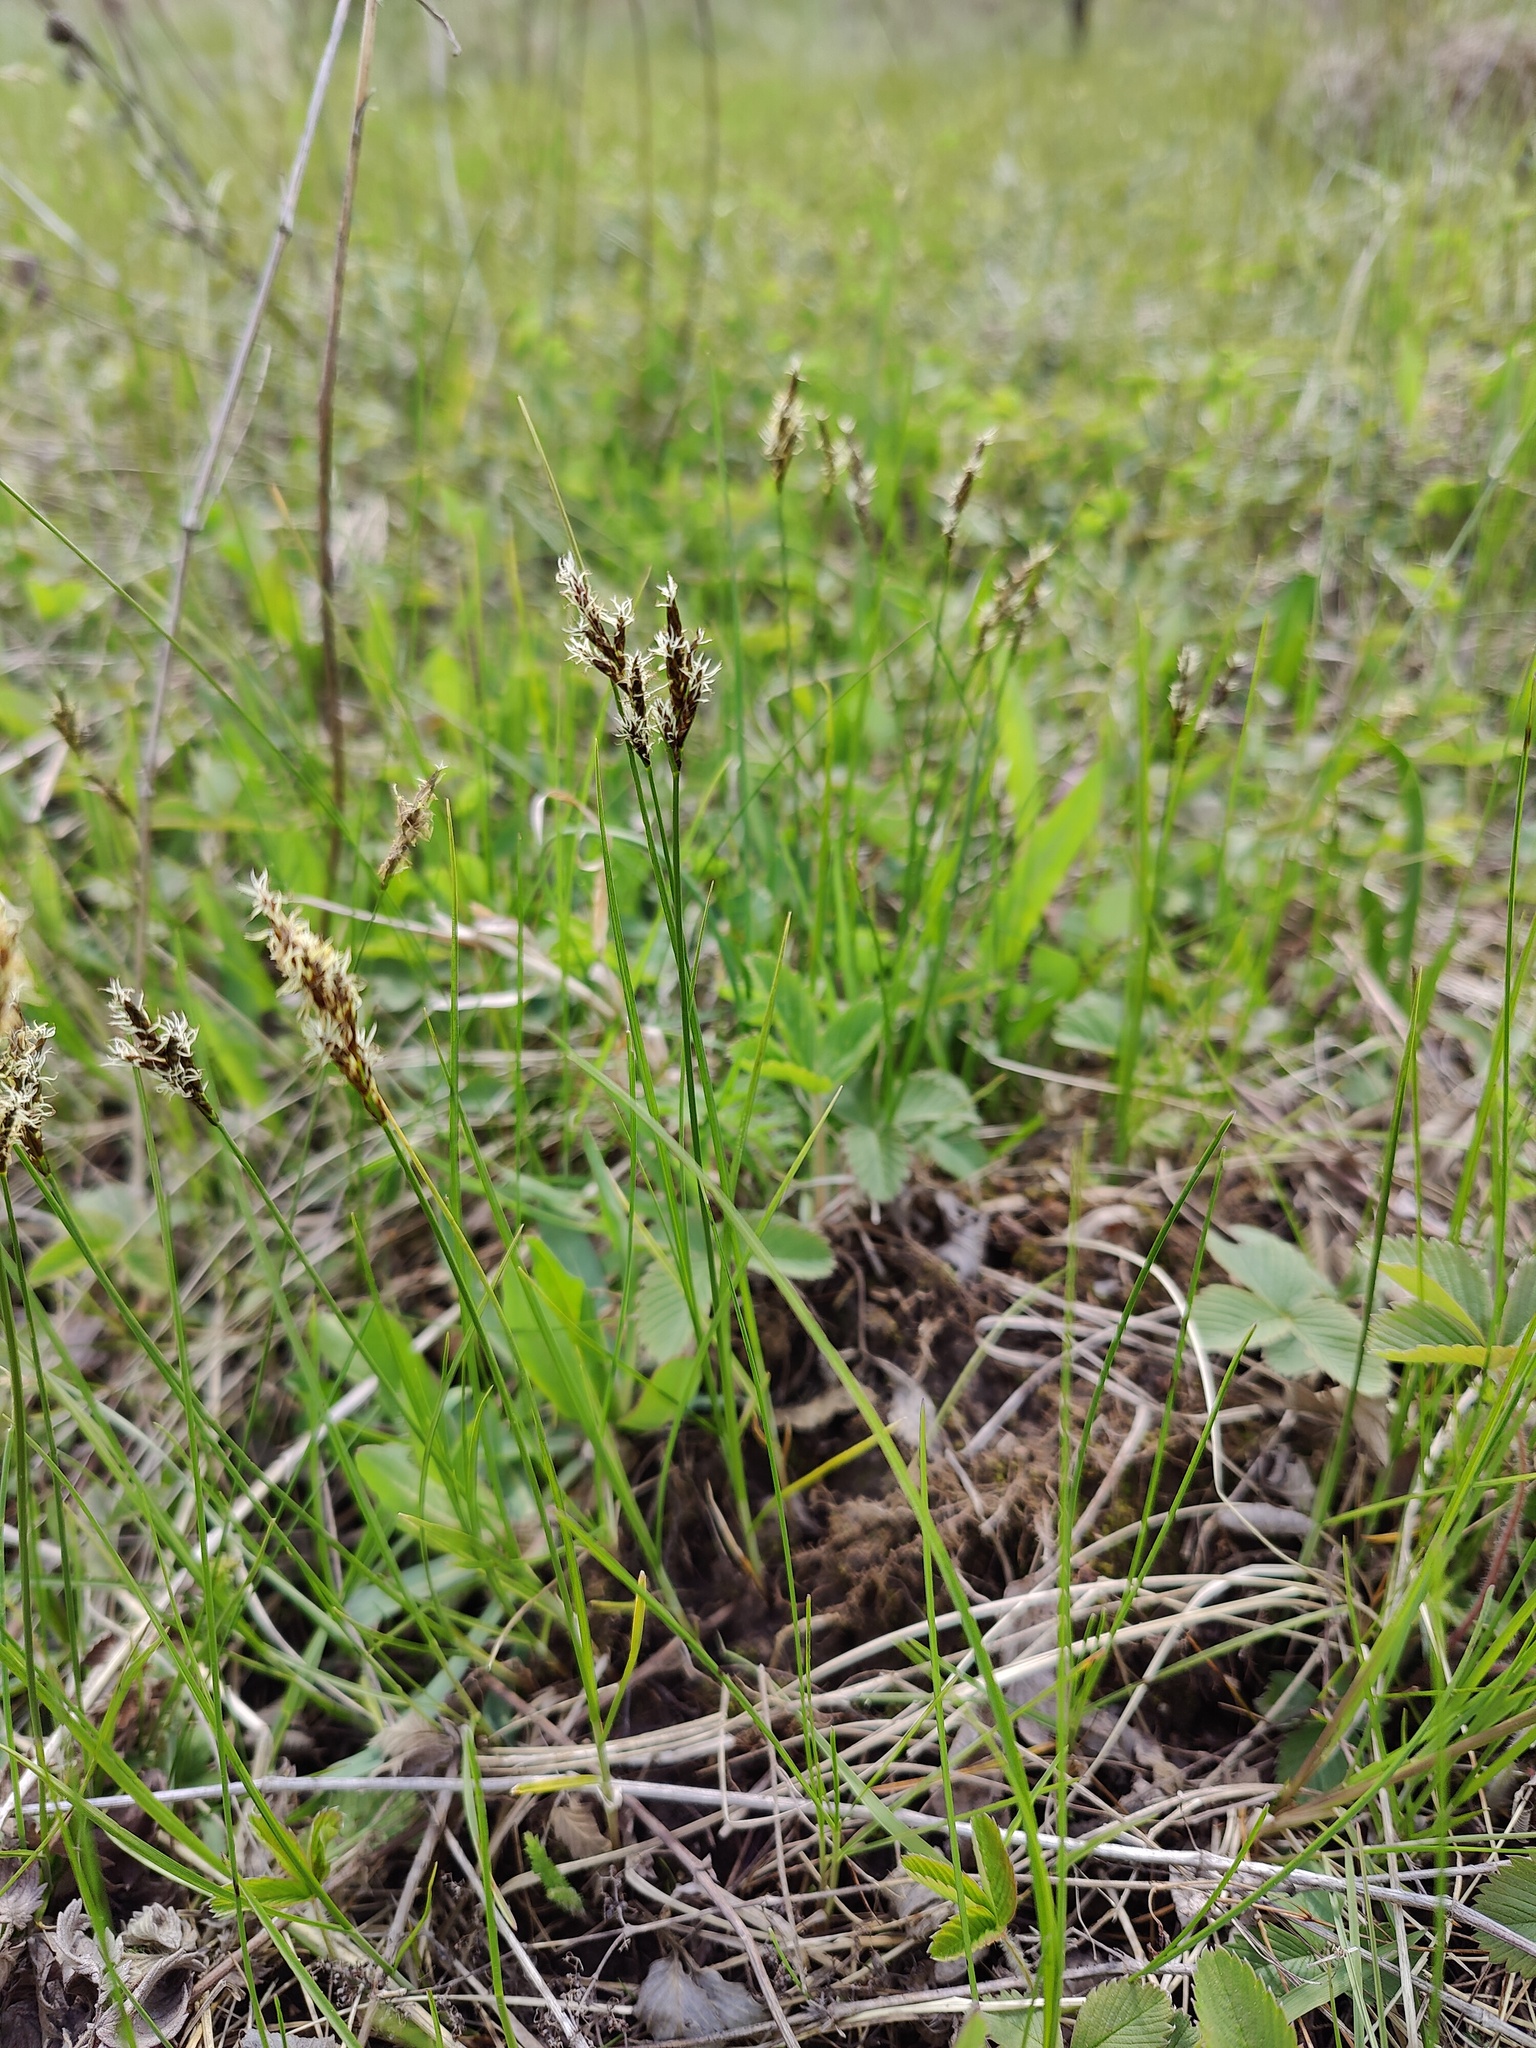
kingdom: Plantae
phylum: Tracheophyta
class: Liliopsida
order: Poales
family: Cyperaceae
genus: Carex
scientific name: Carex praecox
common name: Early sedge
